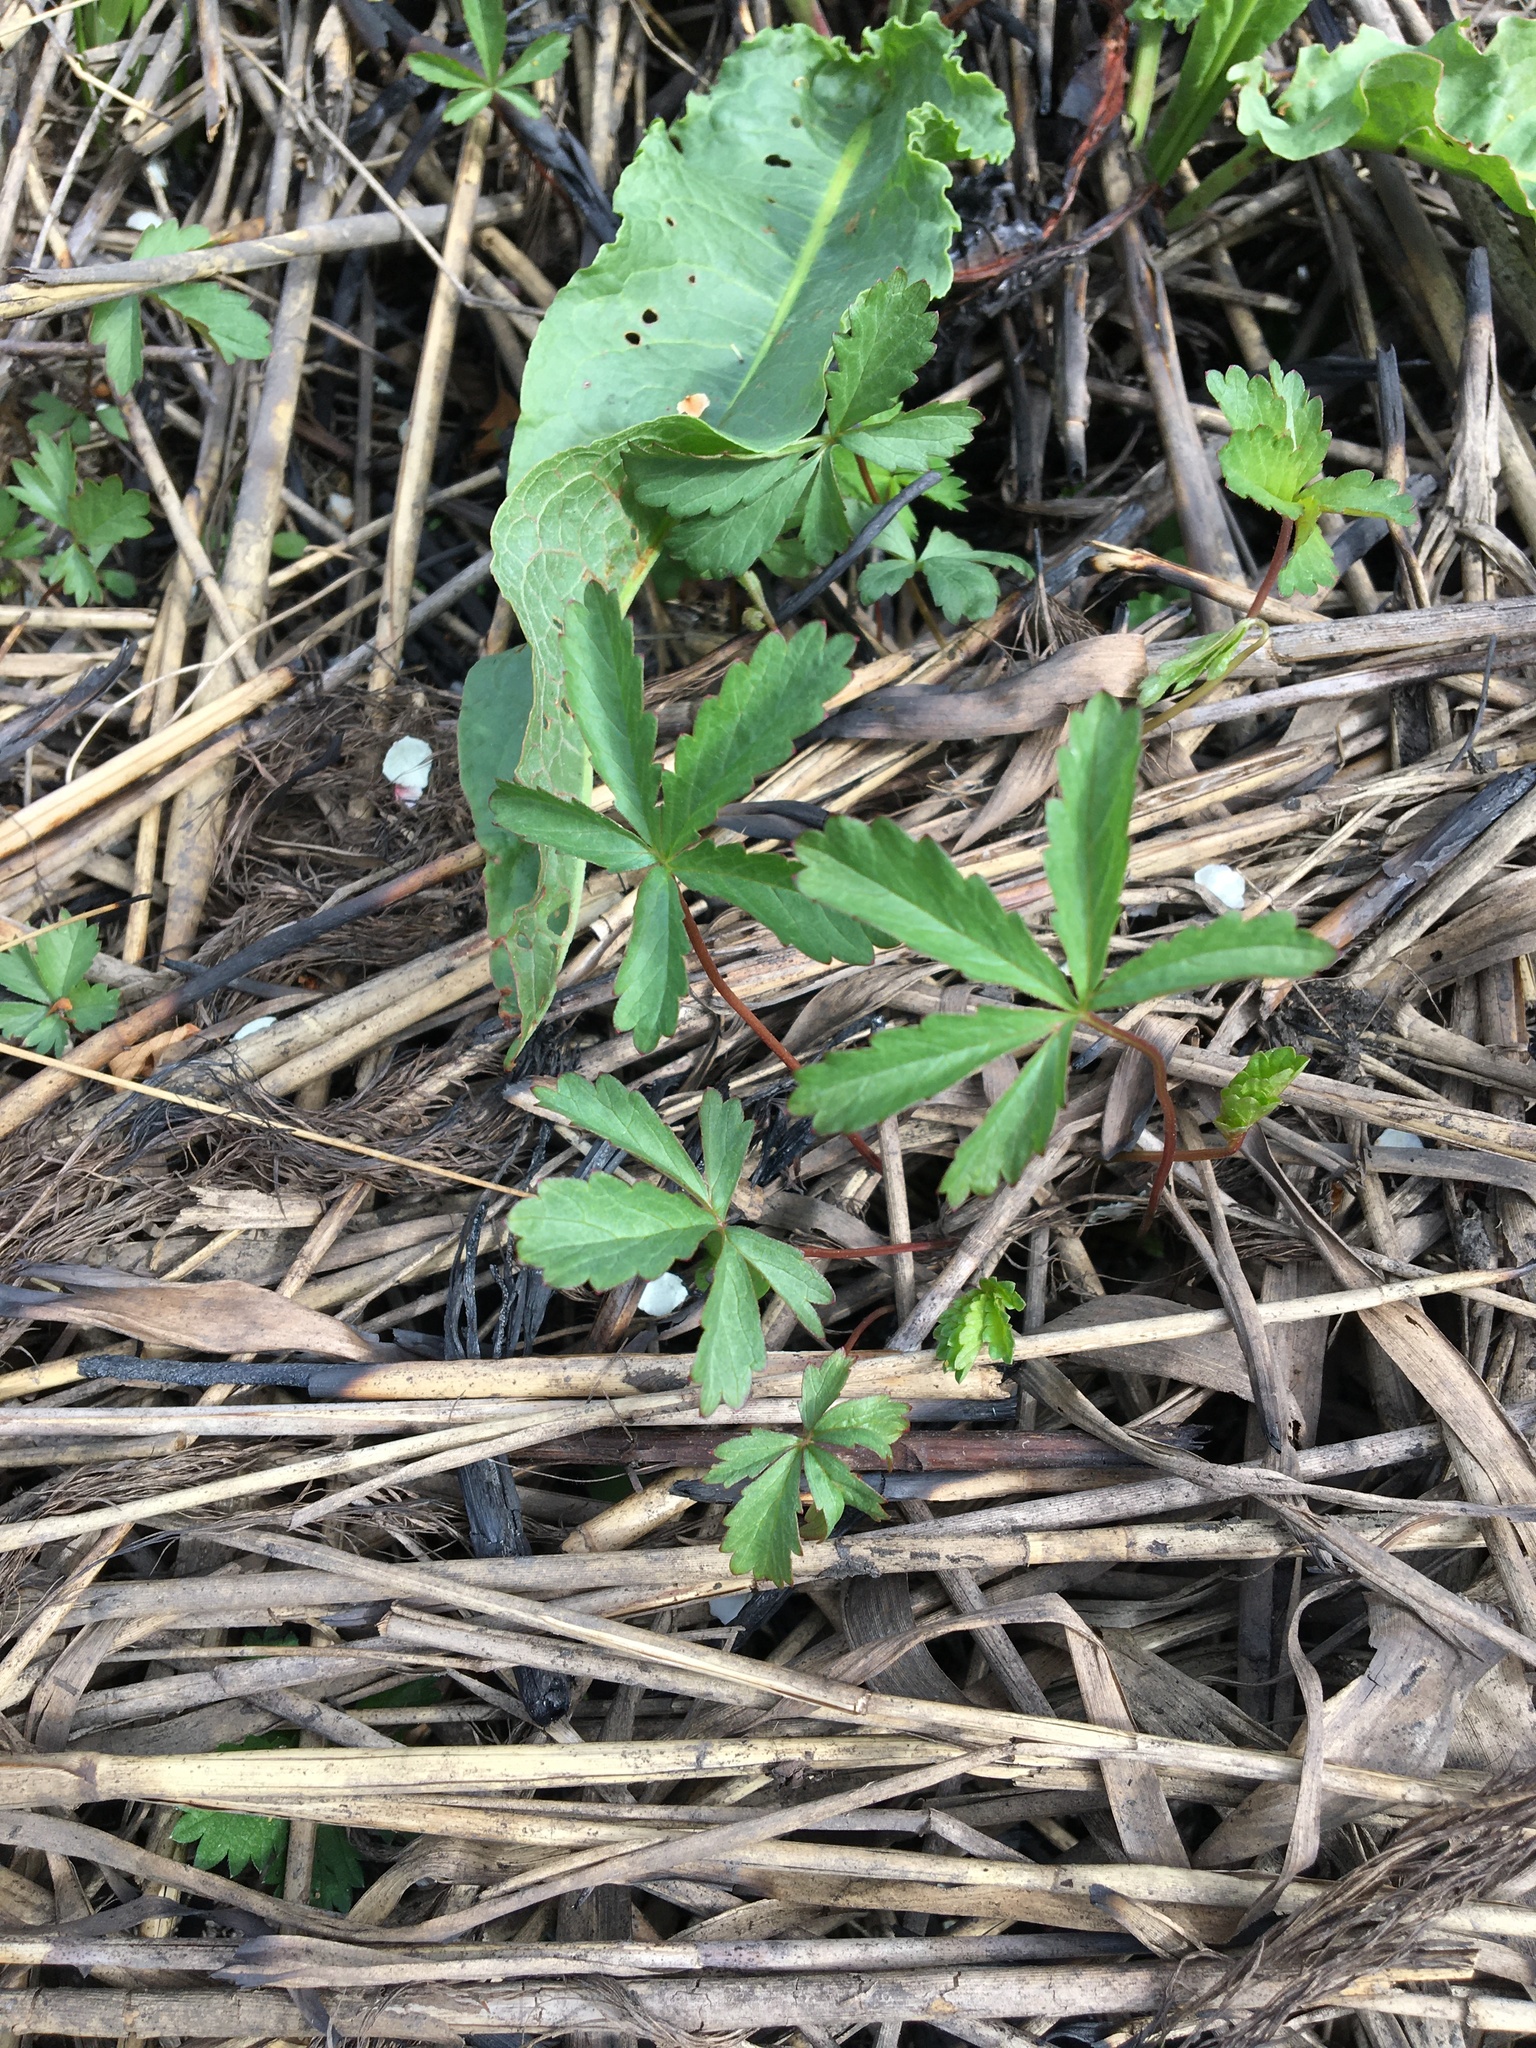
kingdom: Plantae
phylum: Tracheophyta
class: Magnoliopsida
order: Rosales
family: Rosaceae
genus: Potentilla
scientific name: Potentilla reptans
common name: Creeping cinquefoil
